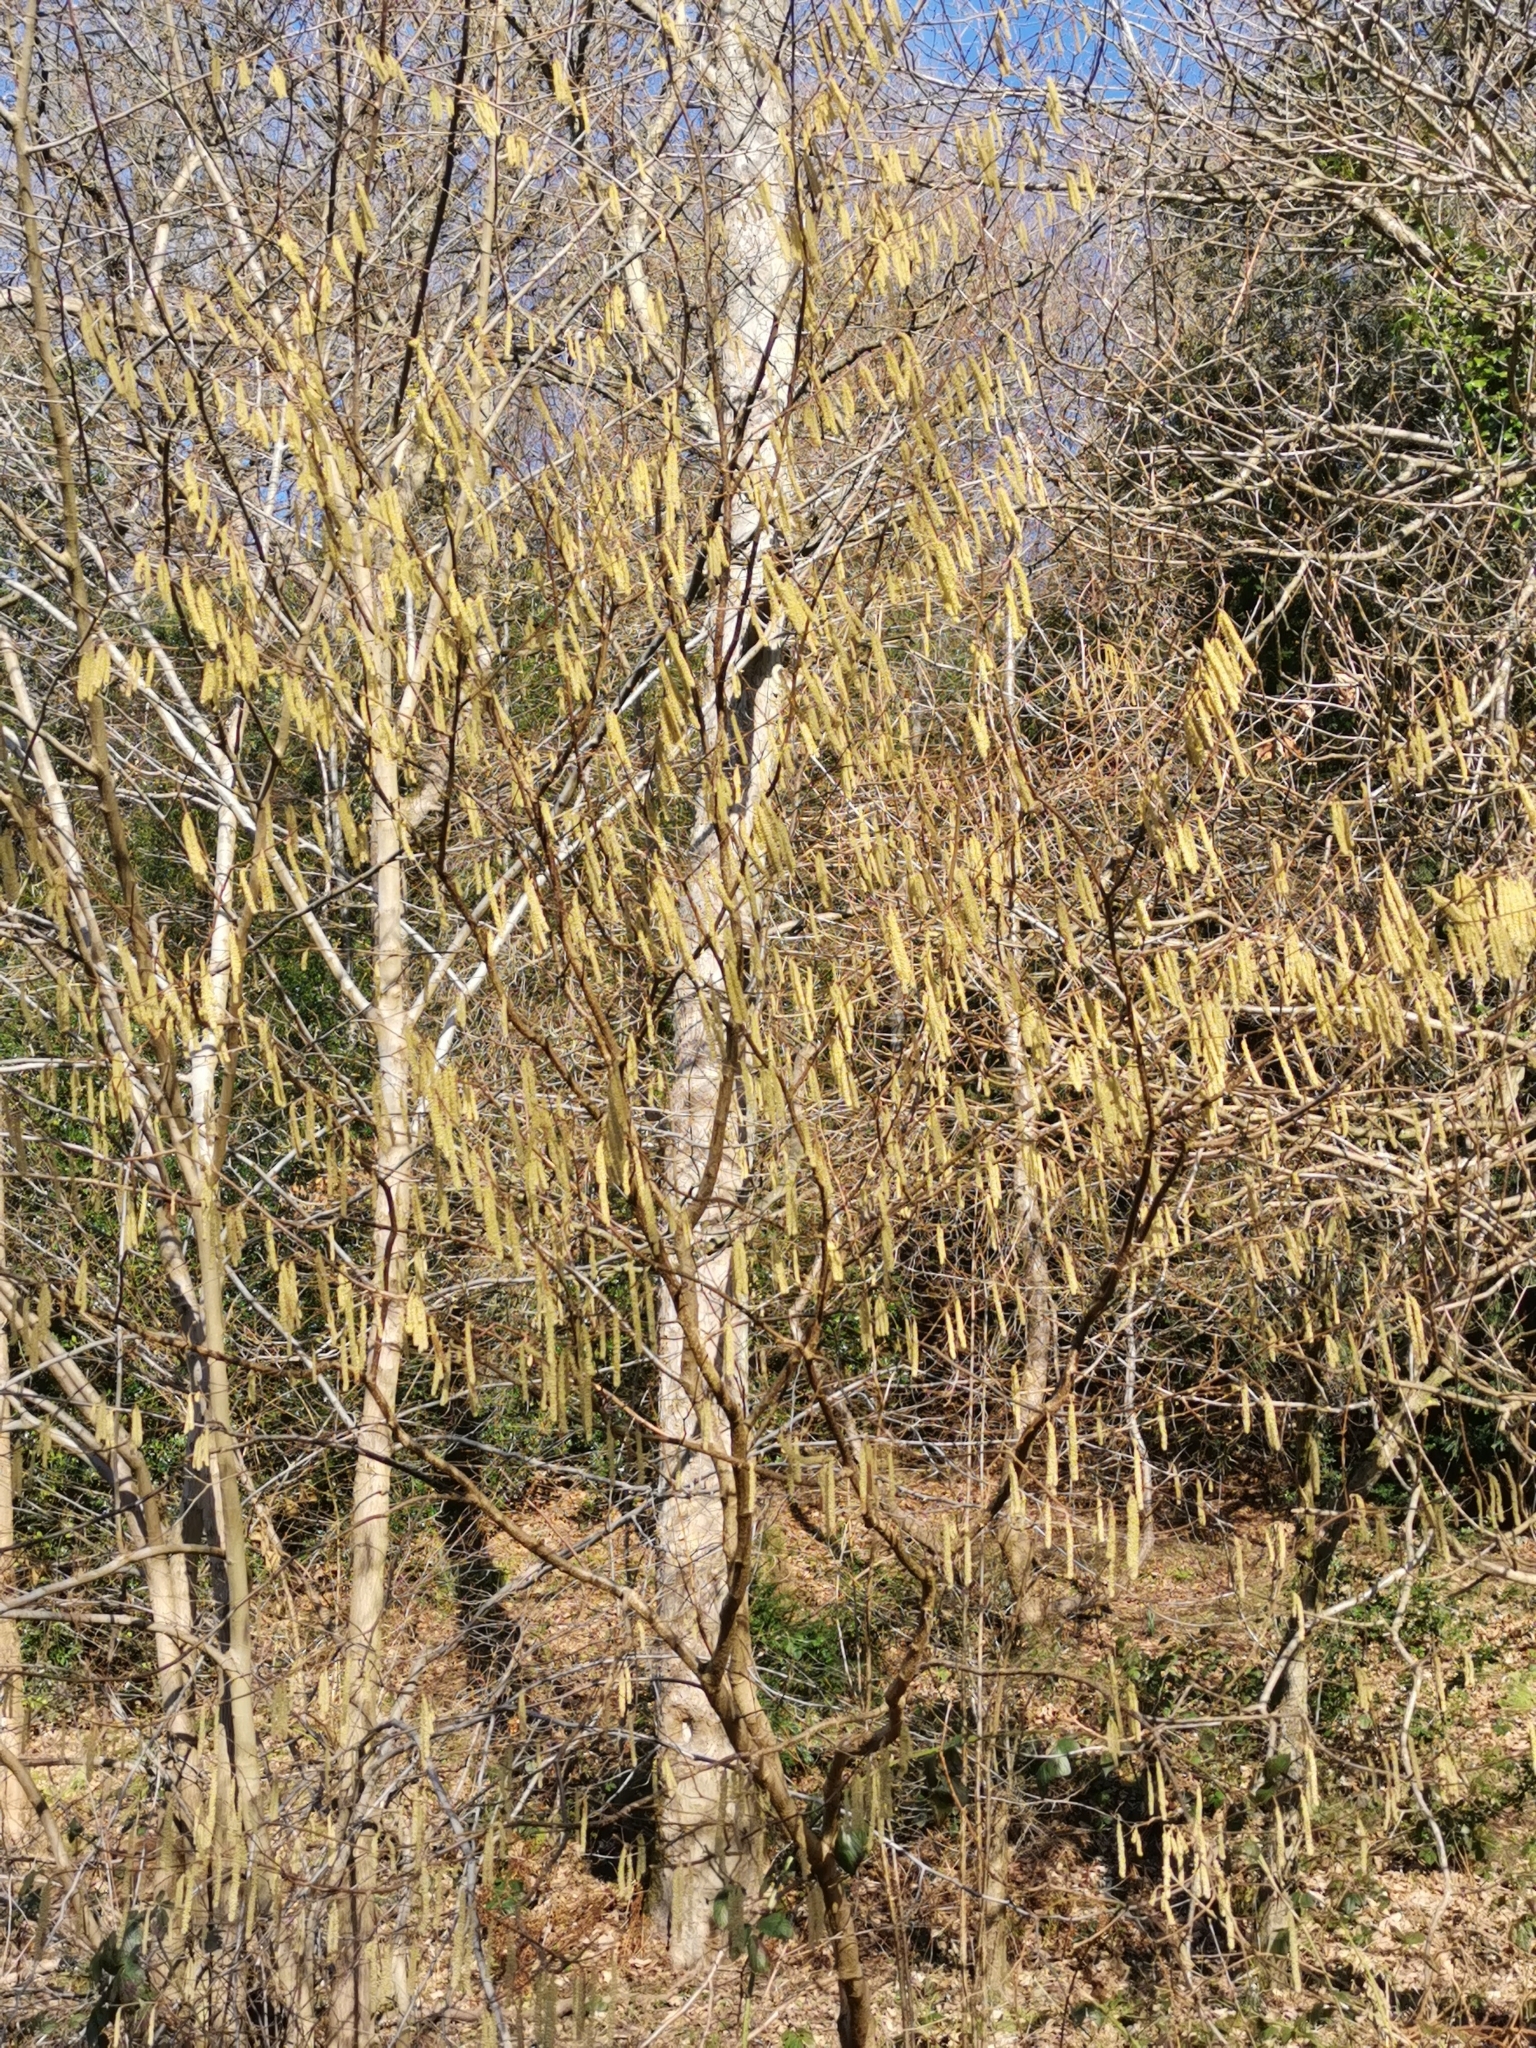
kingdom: Plantae
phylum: Tracheophyta
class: Magnoliopsida
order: Fagales
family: Betulaceae
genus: Corylus
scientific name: Corylus avellana
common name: European hazel
